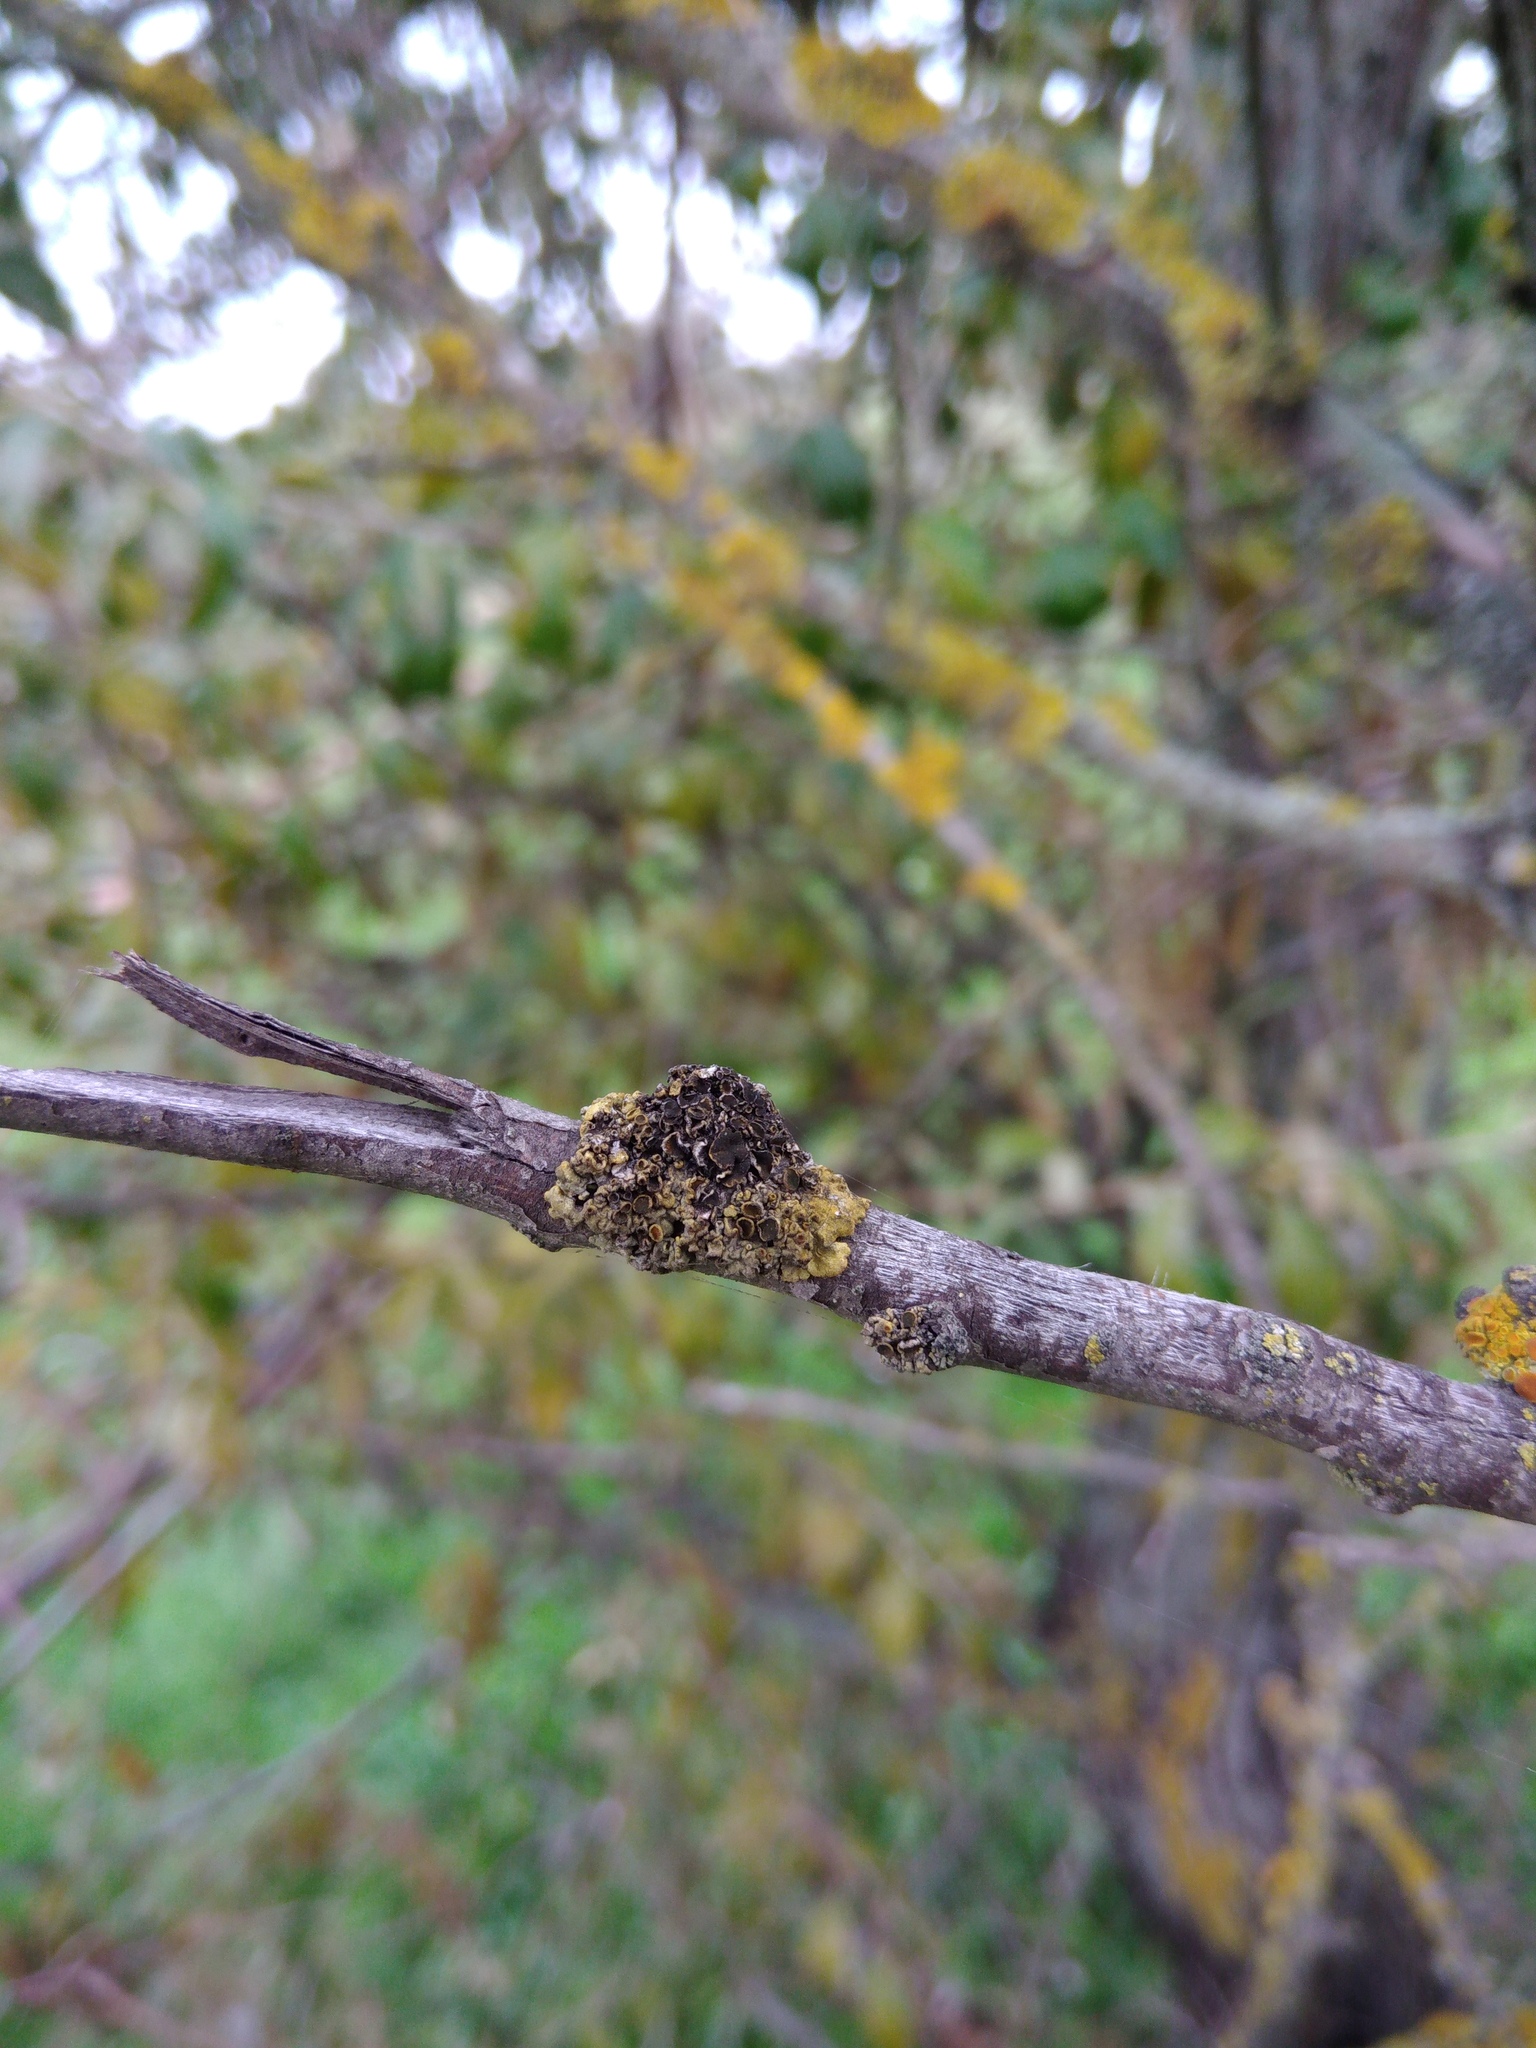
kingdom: Fungi
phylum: Ascomycota
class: Dothideomycetes
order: Mycosphaerellales
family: Teratosphaeriaceae
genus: Xanthoriicola
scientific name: Xanthoriicola physciae
